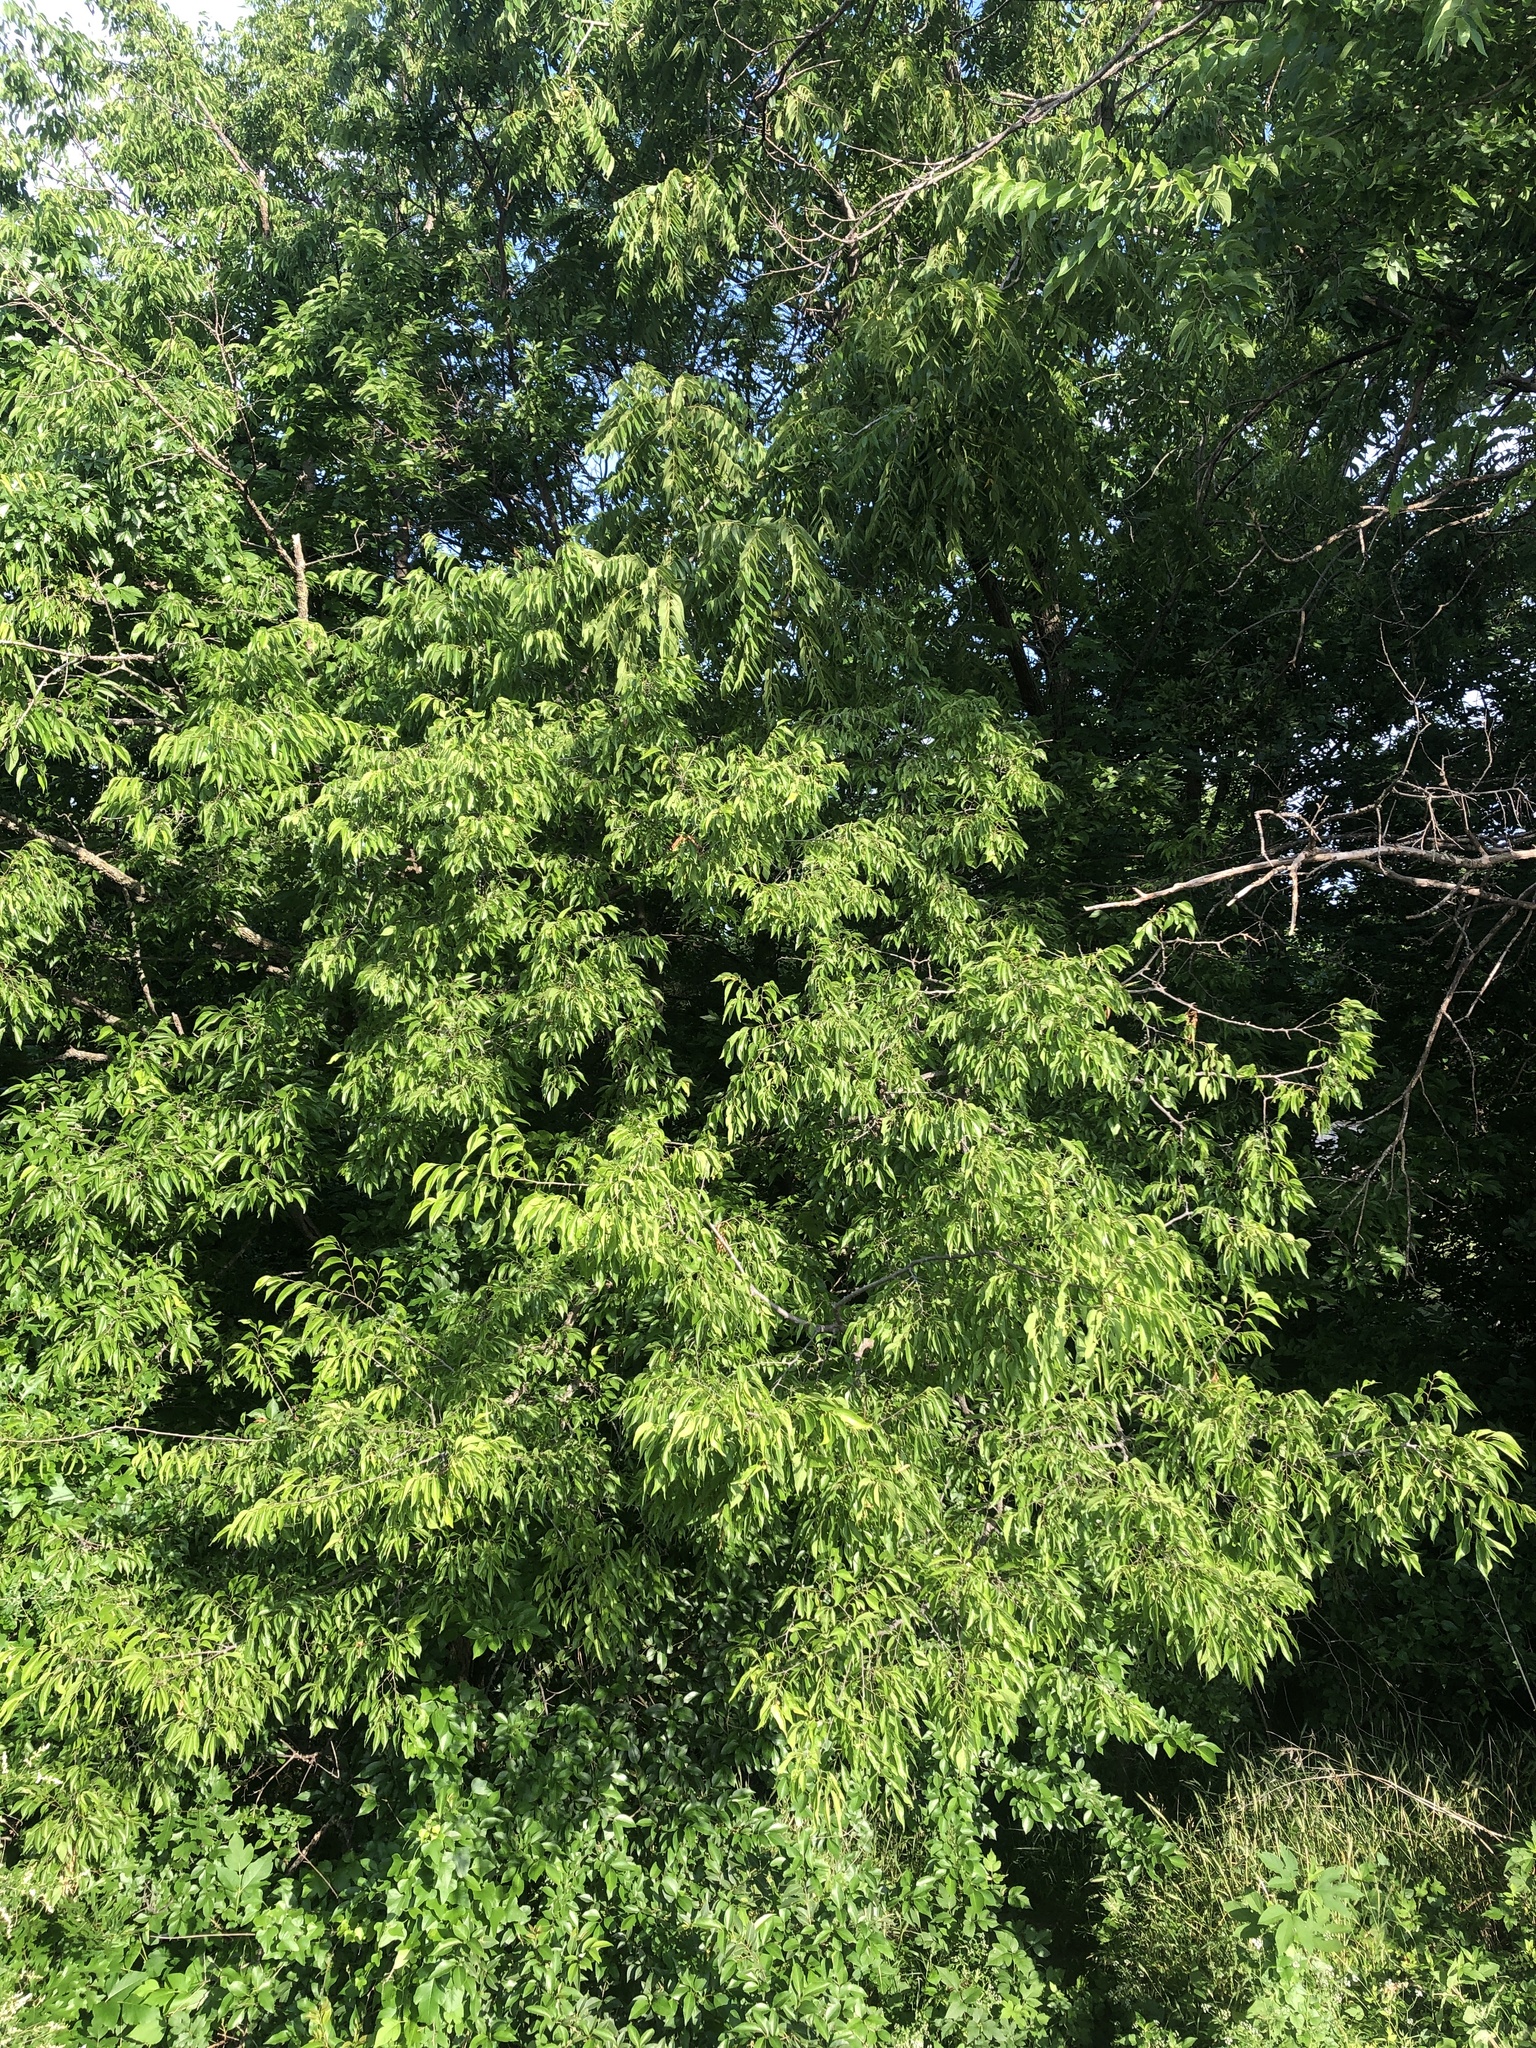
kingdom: Plantae
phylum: Tracheophyta
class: Magnoliopsida
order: Rosales
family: Cannabaceae
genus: Celtis
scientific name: Celtis laevigata
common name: Sugarberry
